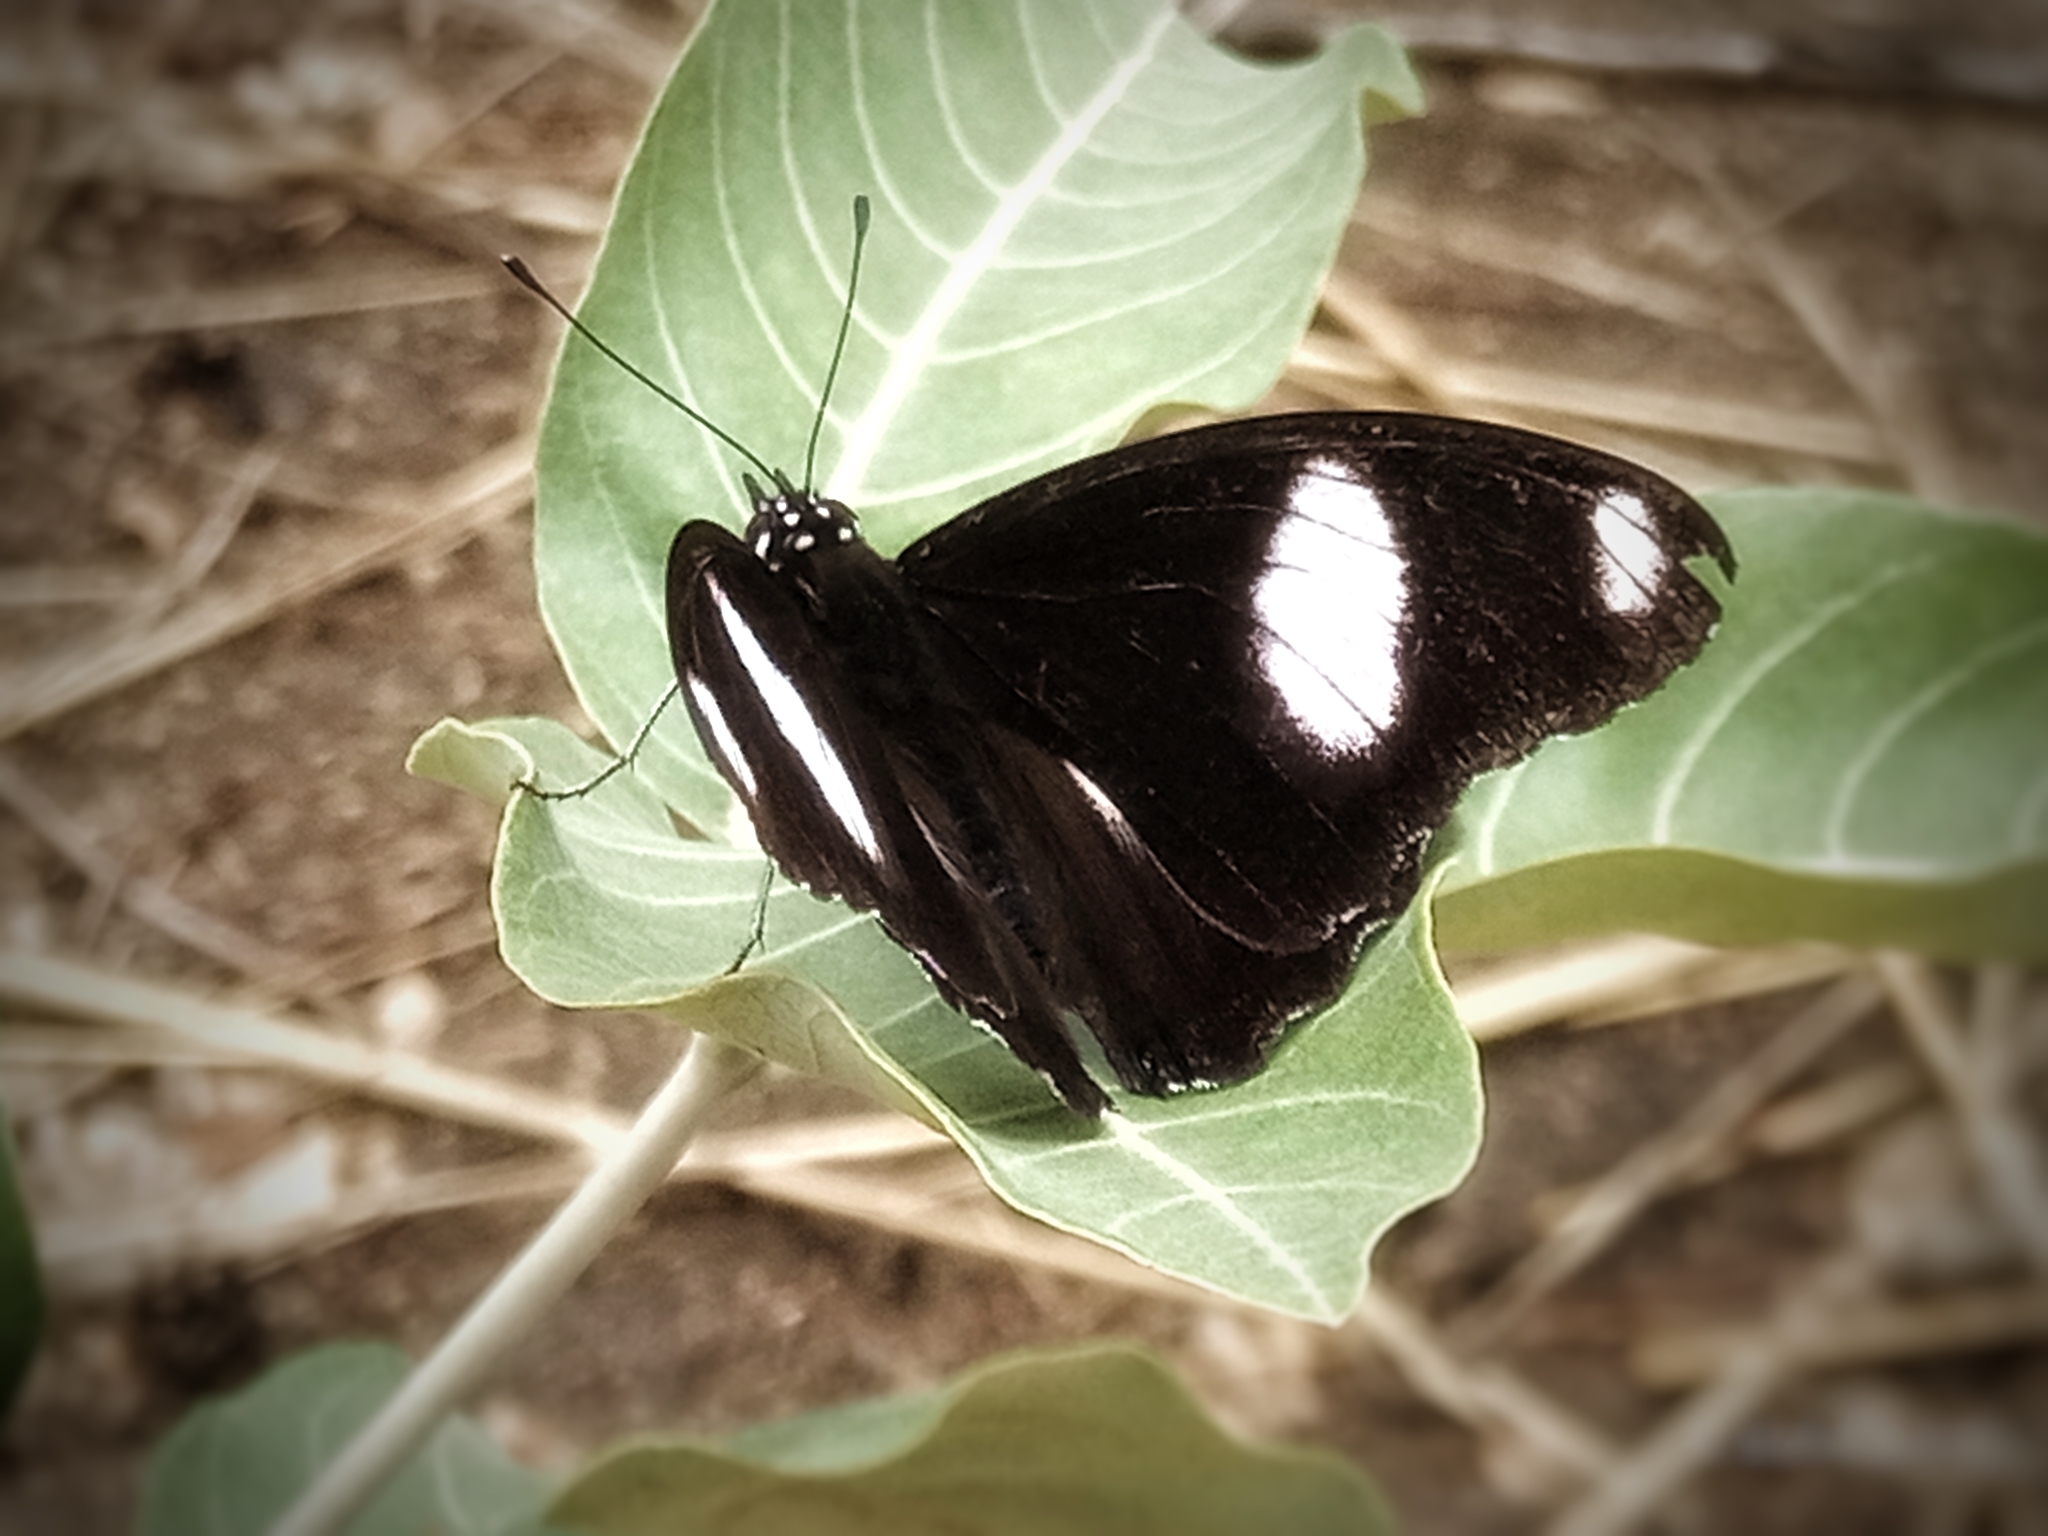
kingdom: Animalia
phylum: Arthropoda
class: Insecta
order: Lepidoptera
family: Nymphalidae
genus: Hypolimnas
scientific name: Hypolimnas misippus
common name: False plain tiger
